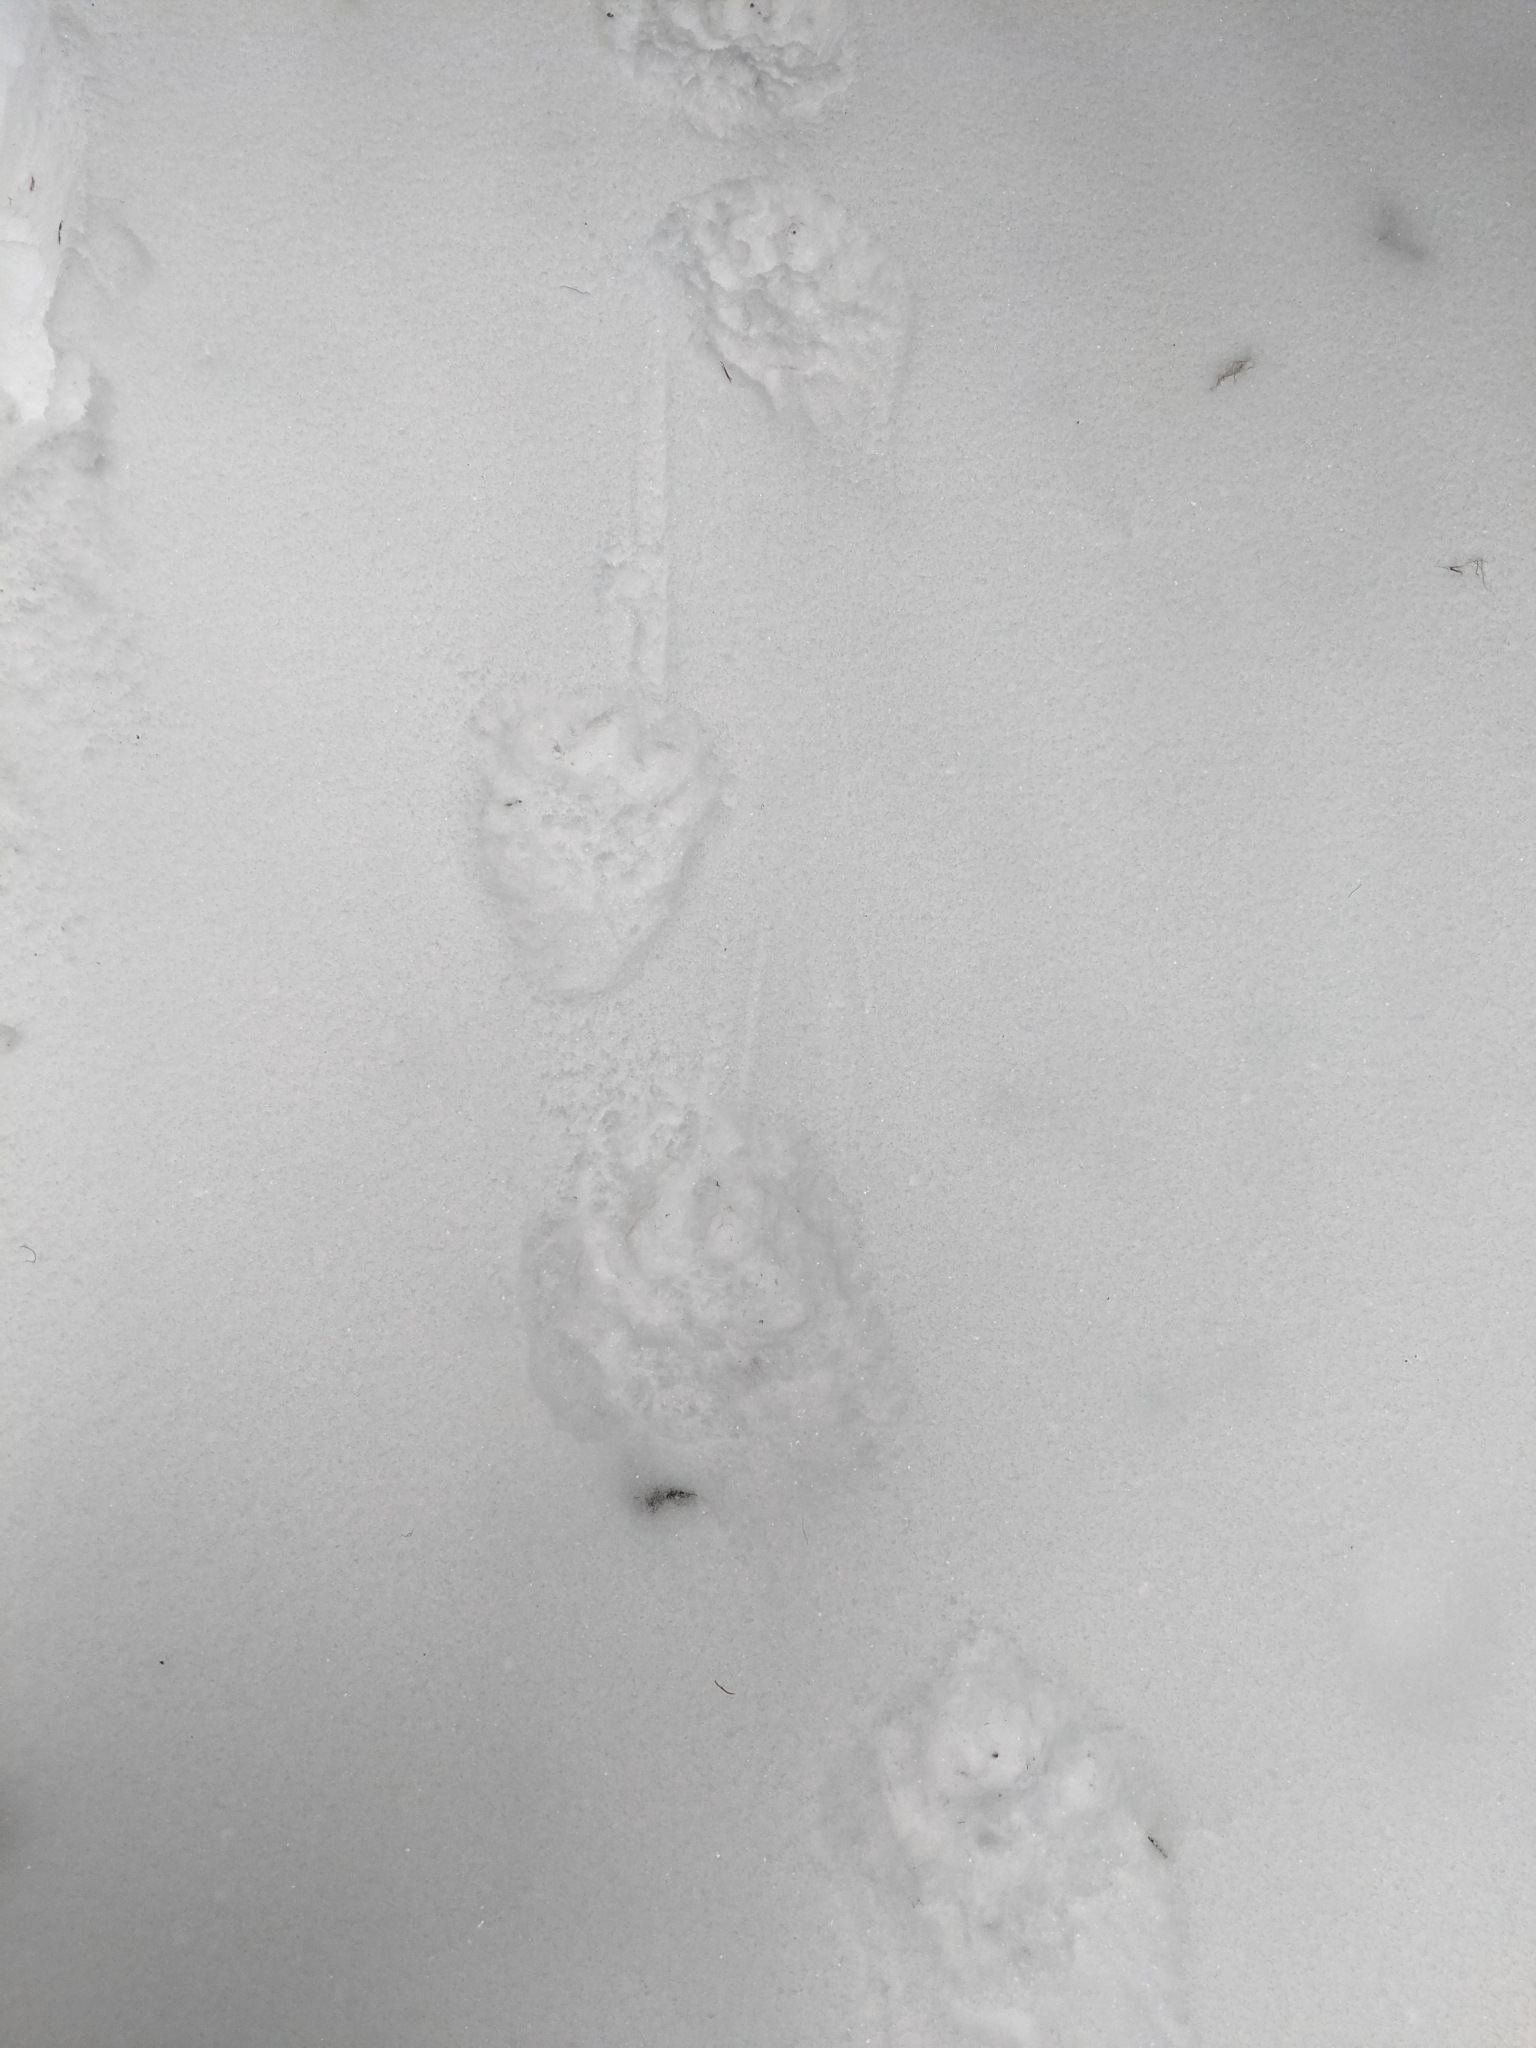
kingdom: Animalia
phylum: Chordata
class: Mammalia
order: Carnivora
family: Mustelidae
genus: Gulo
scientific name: Gulo gulo
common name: Wolverine
